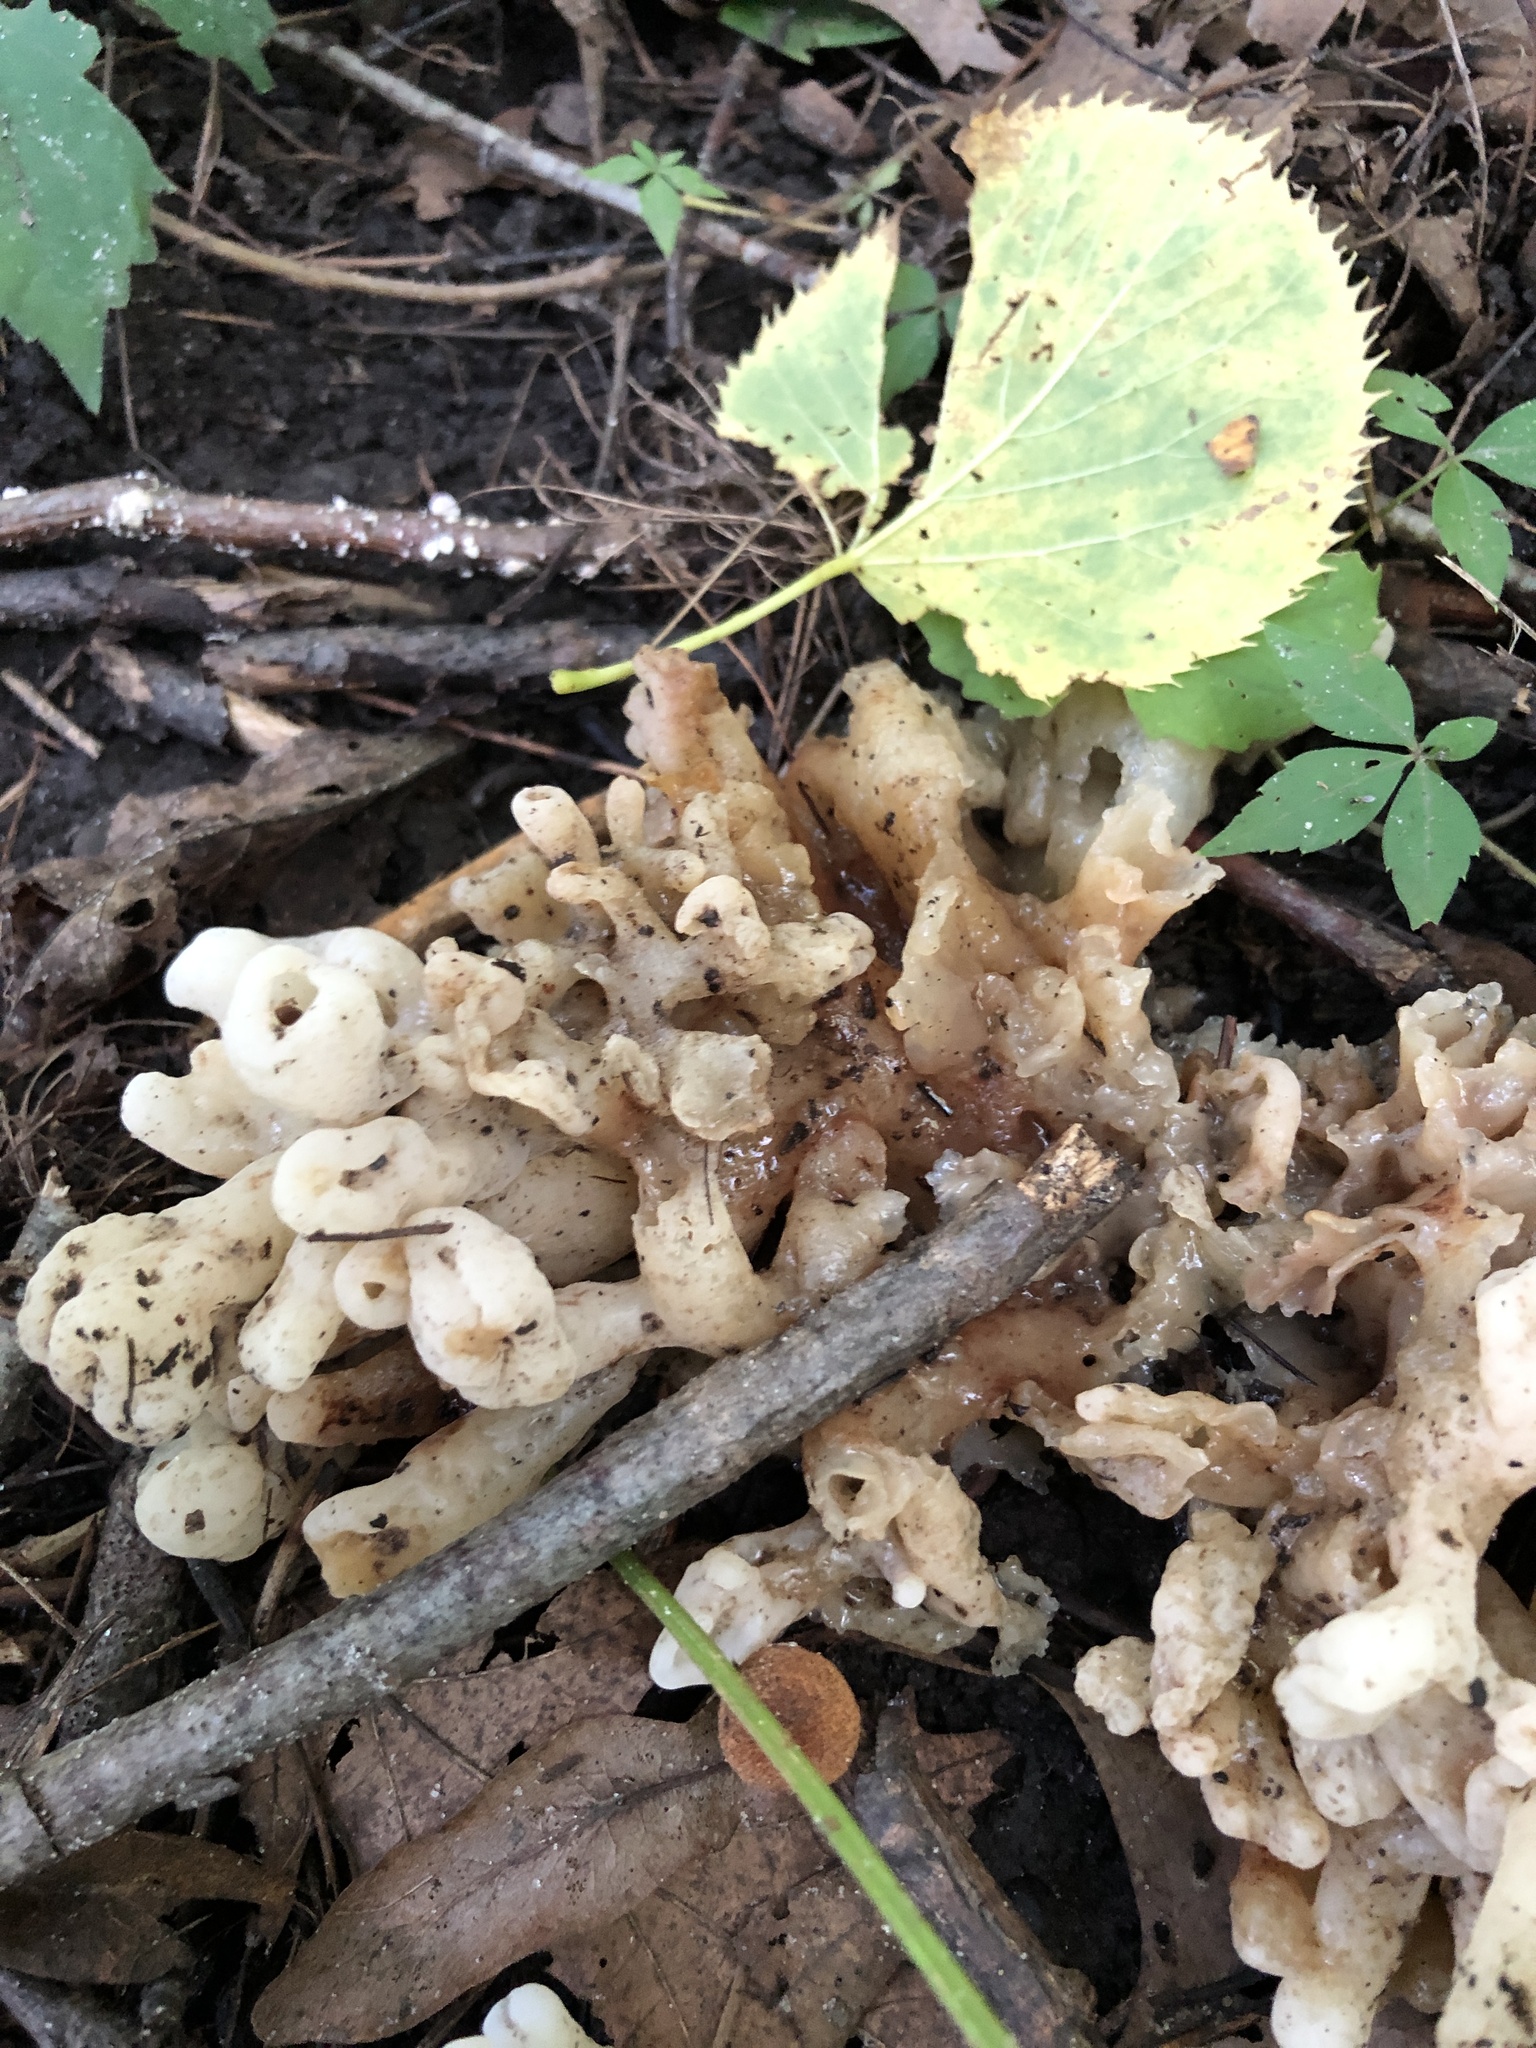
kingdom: Fungi
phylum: Basidiomycota
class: Agaricomycetes
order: Sebacinales
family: Sebacinaceae
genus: Sebacina
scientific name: Sebacina sparassoidea
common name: White coral jelly fungus
